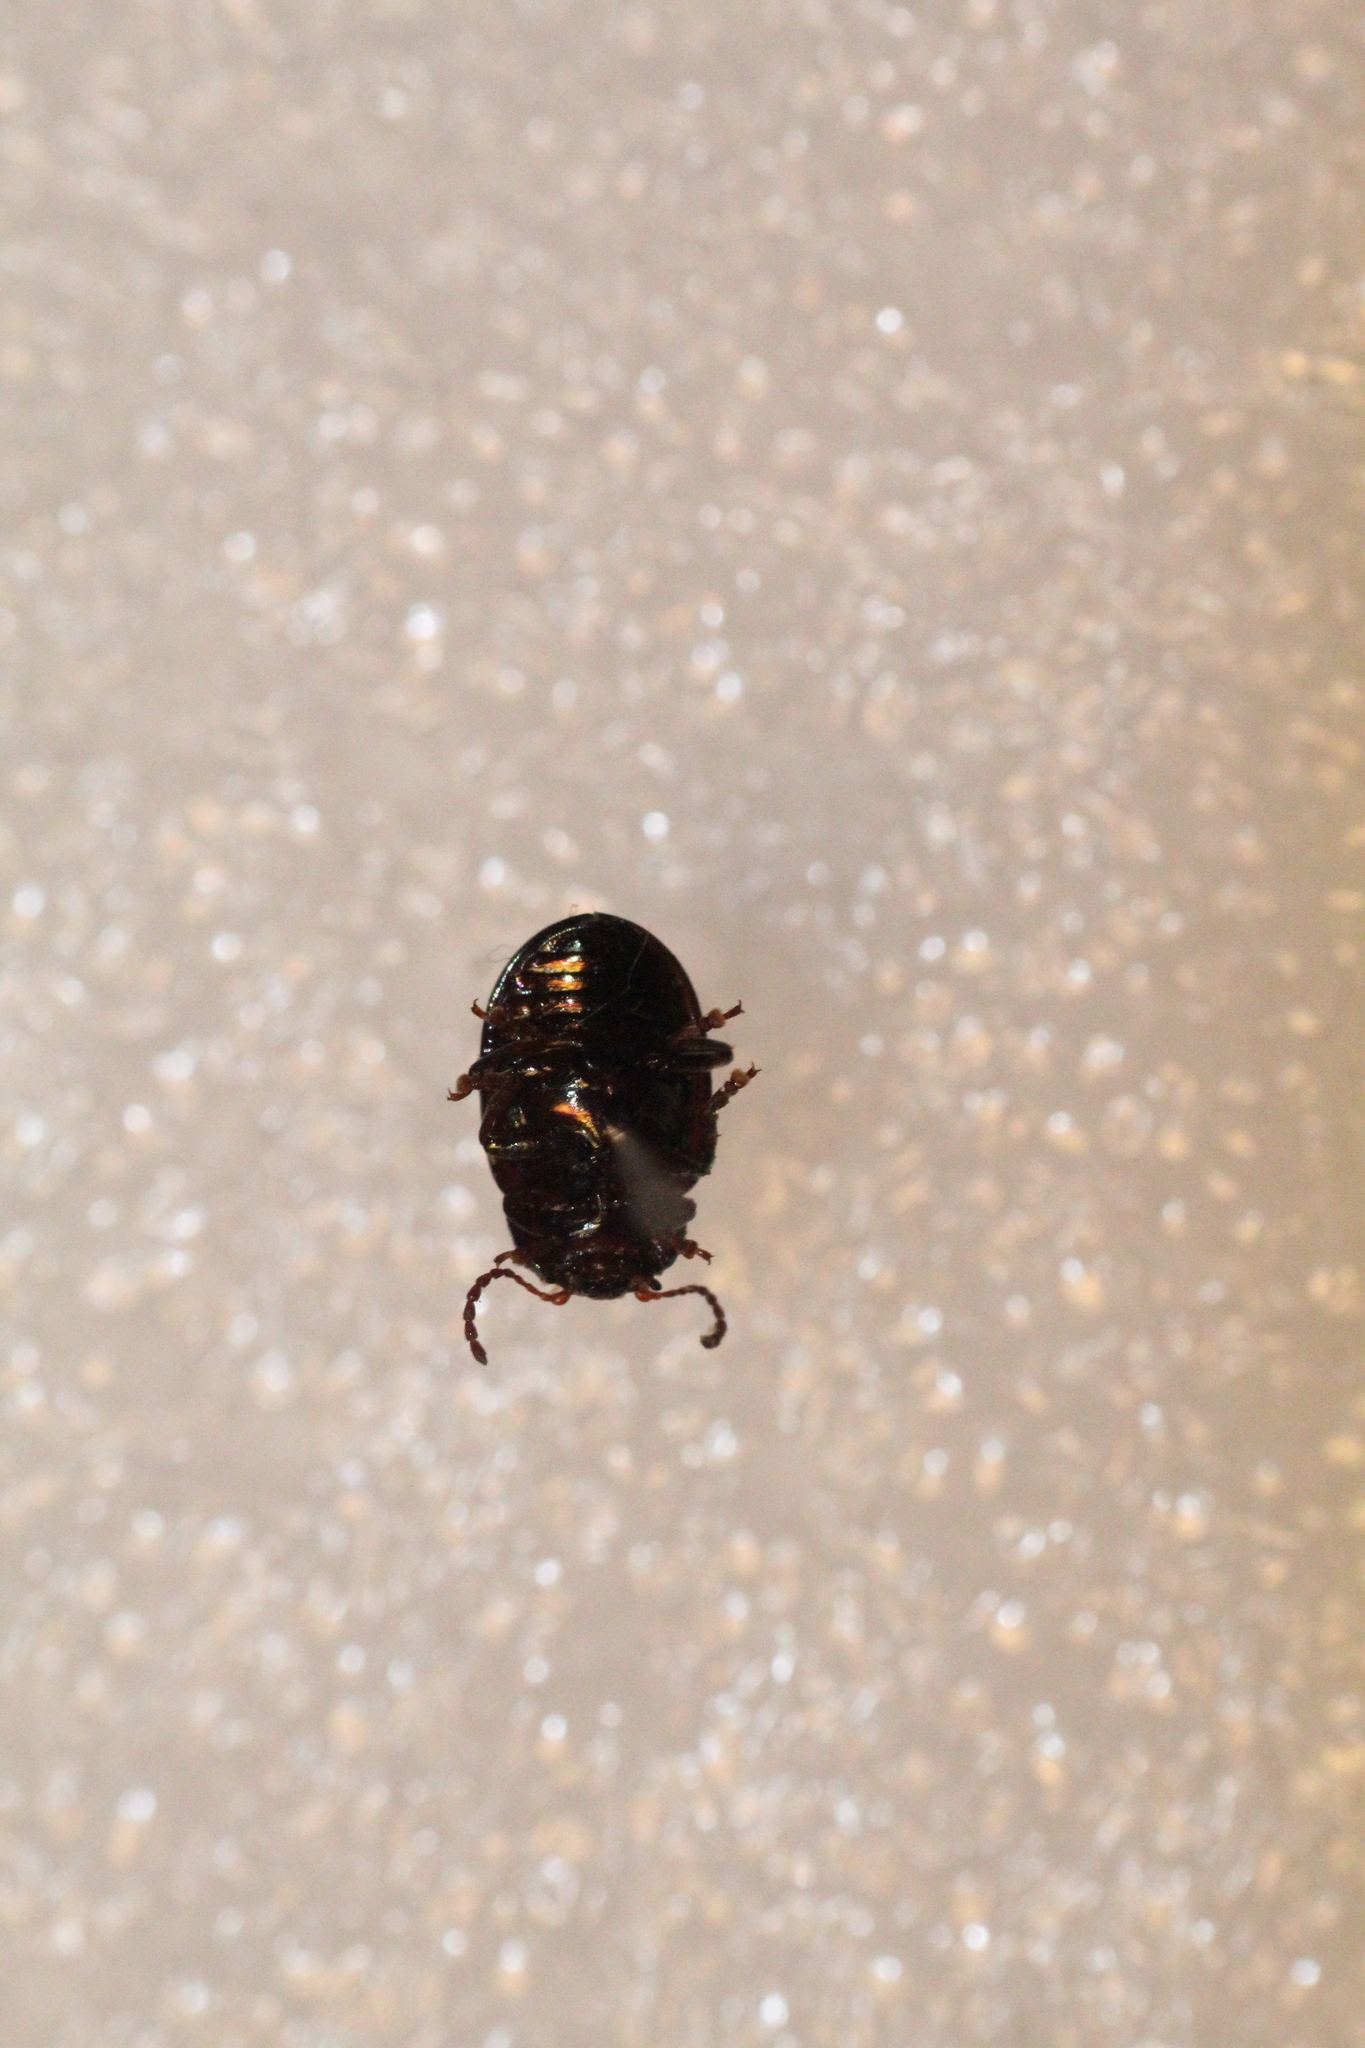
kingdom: Animalia
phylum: Arthropoda
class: Insecta
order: Coleoptera
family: Chrysomelidae
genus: Chrysolina
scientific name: Chrysolina americana
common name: Rosemary beetle
